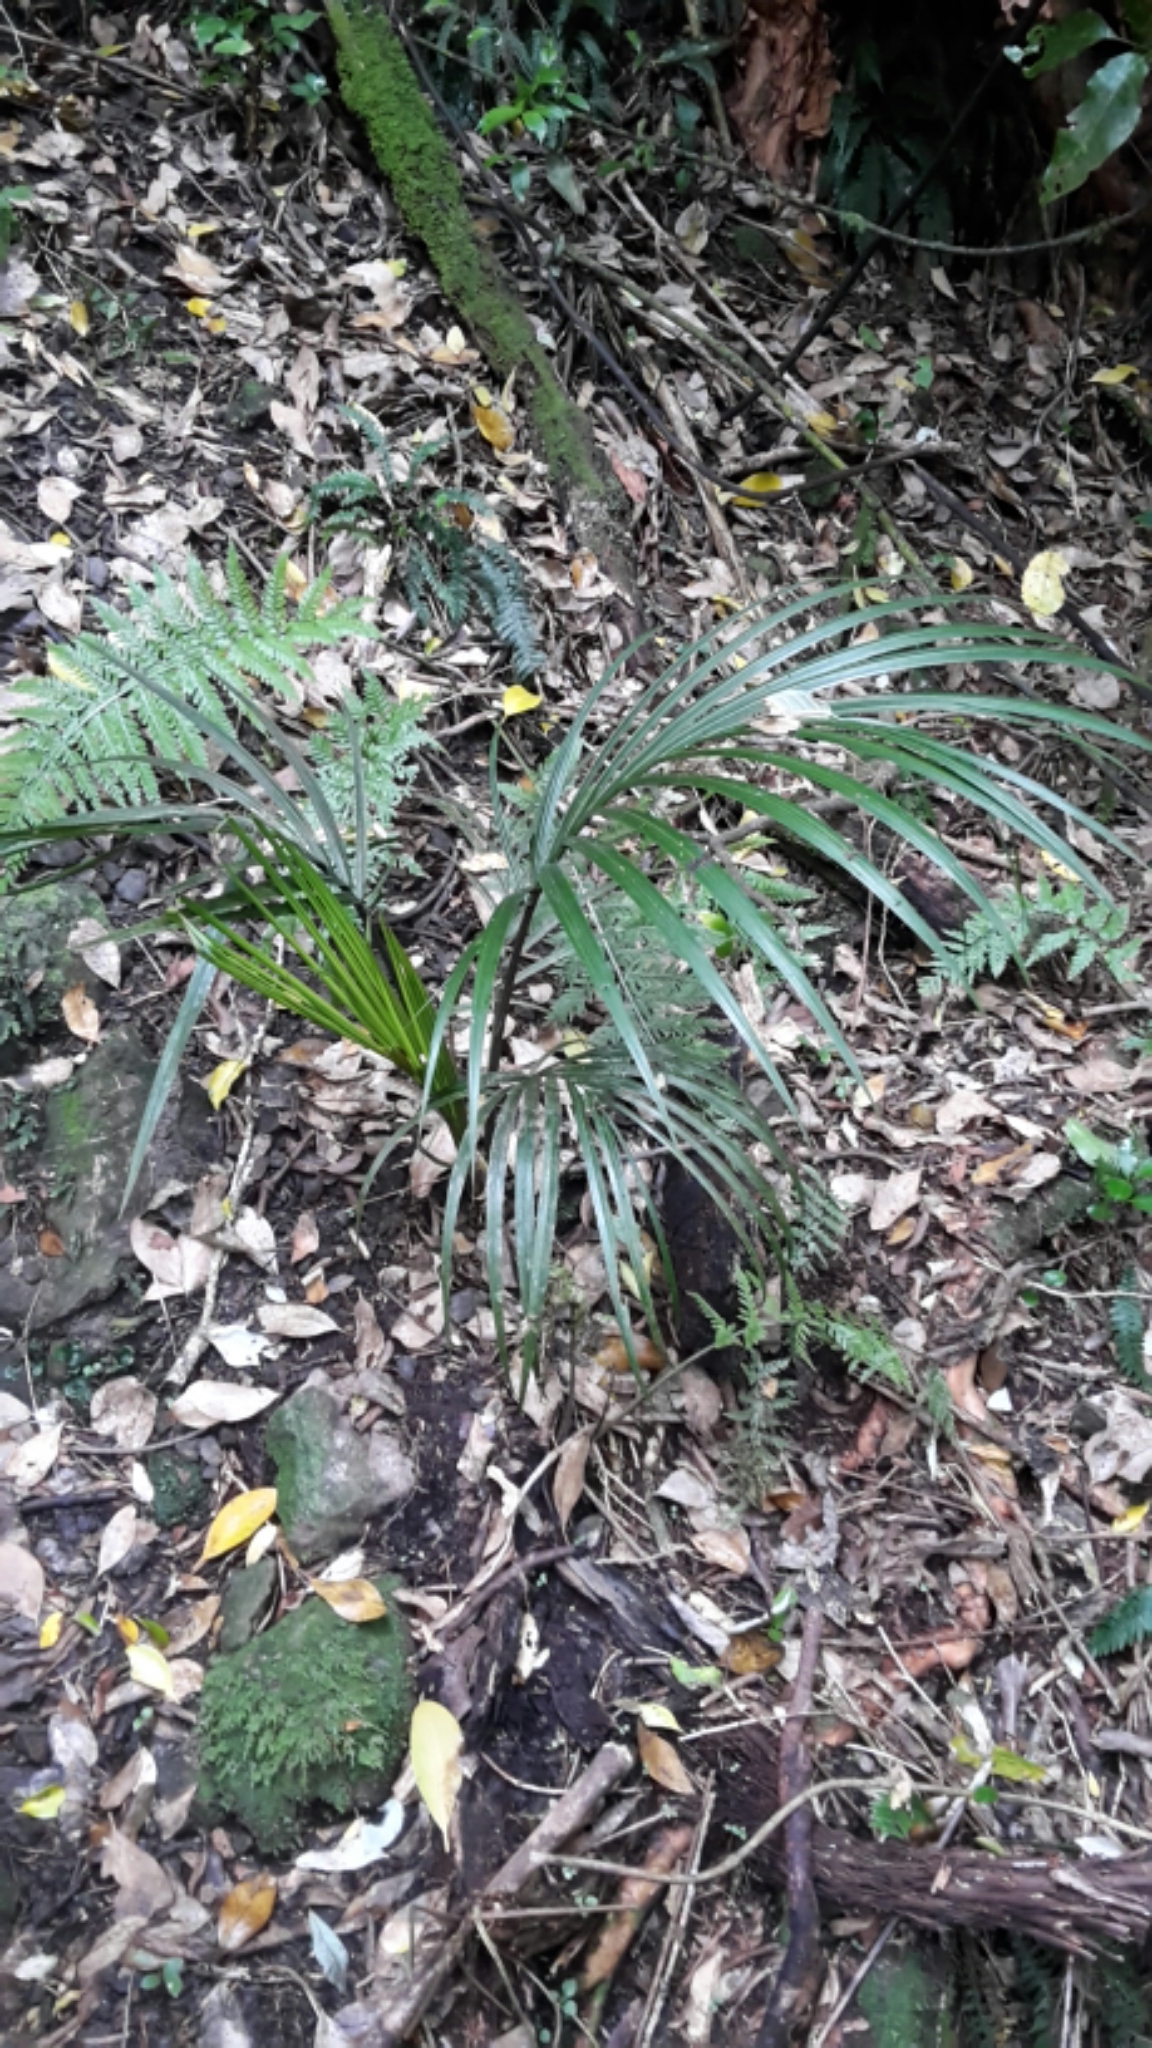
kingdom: Plantae
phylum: Tracheophyta
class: Liliopsida
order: Arecales
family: Arecaceae
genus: Rhopalostylis
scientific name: Rhopalostylis sapida
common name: Feather-duster palm
